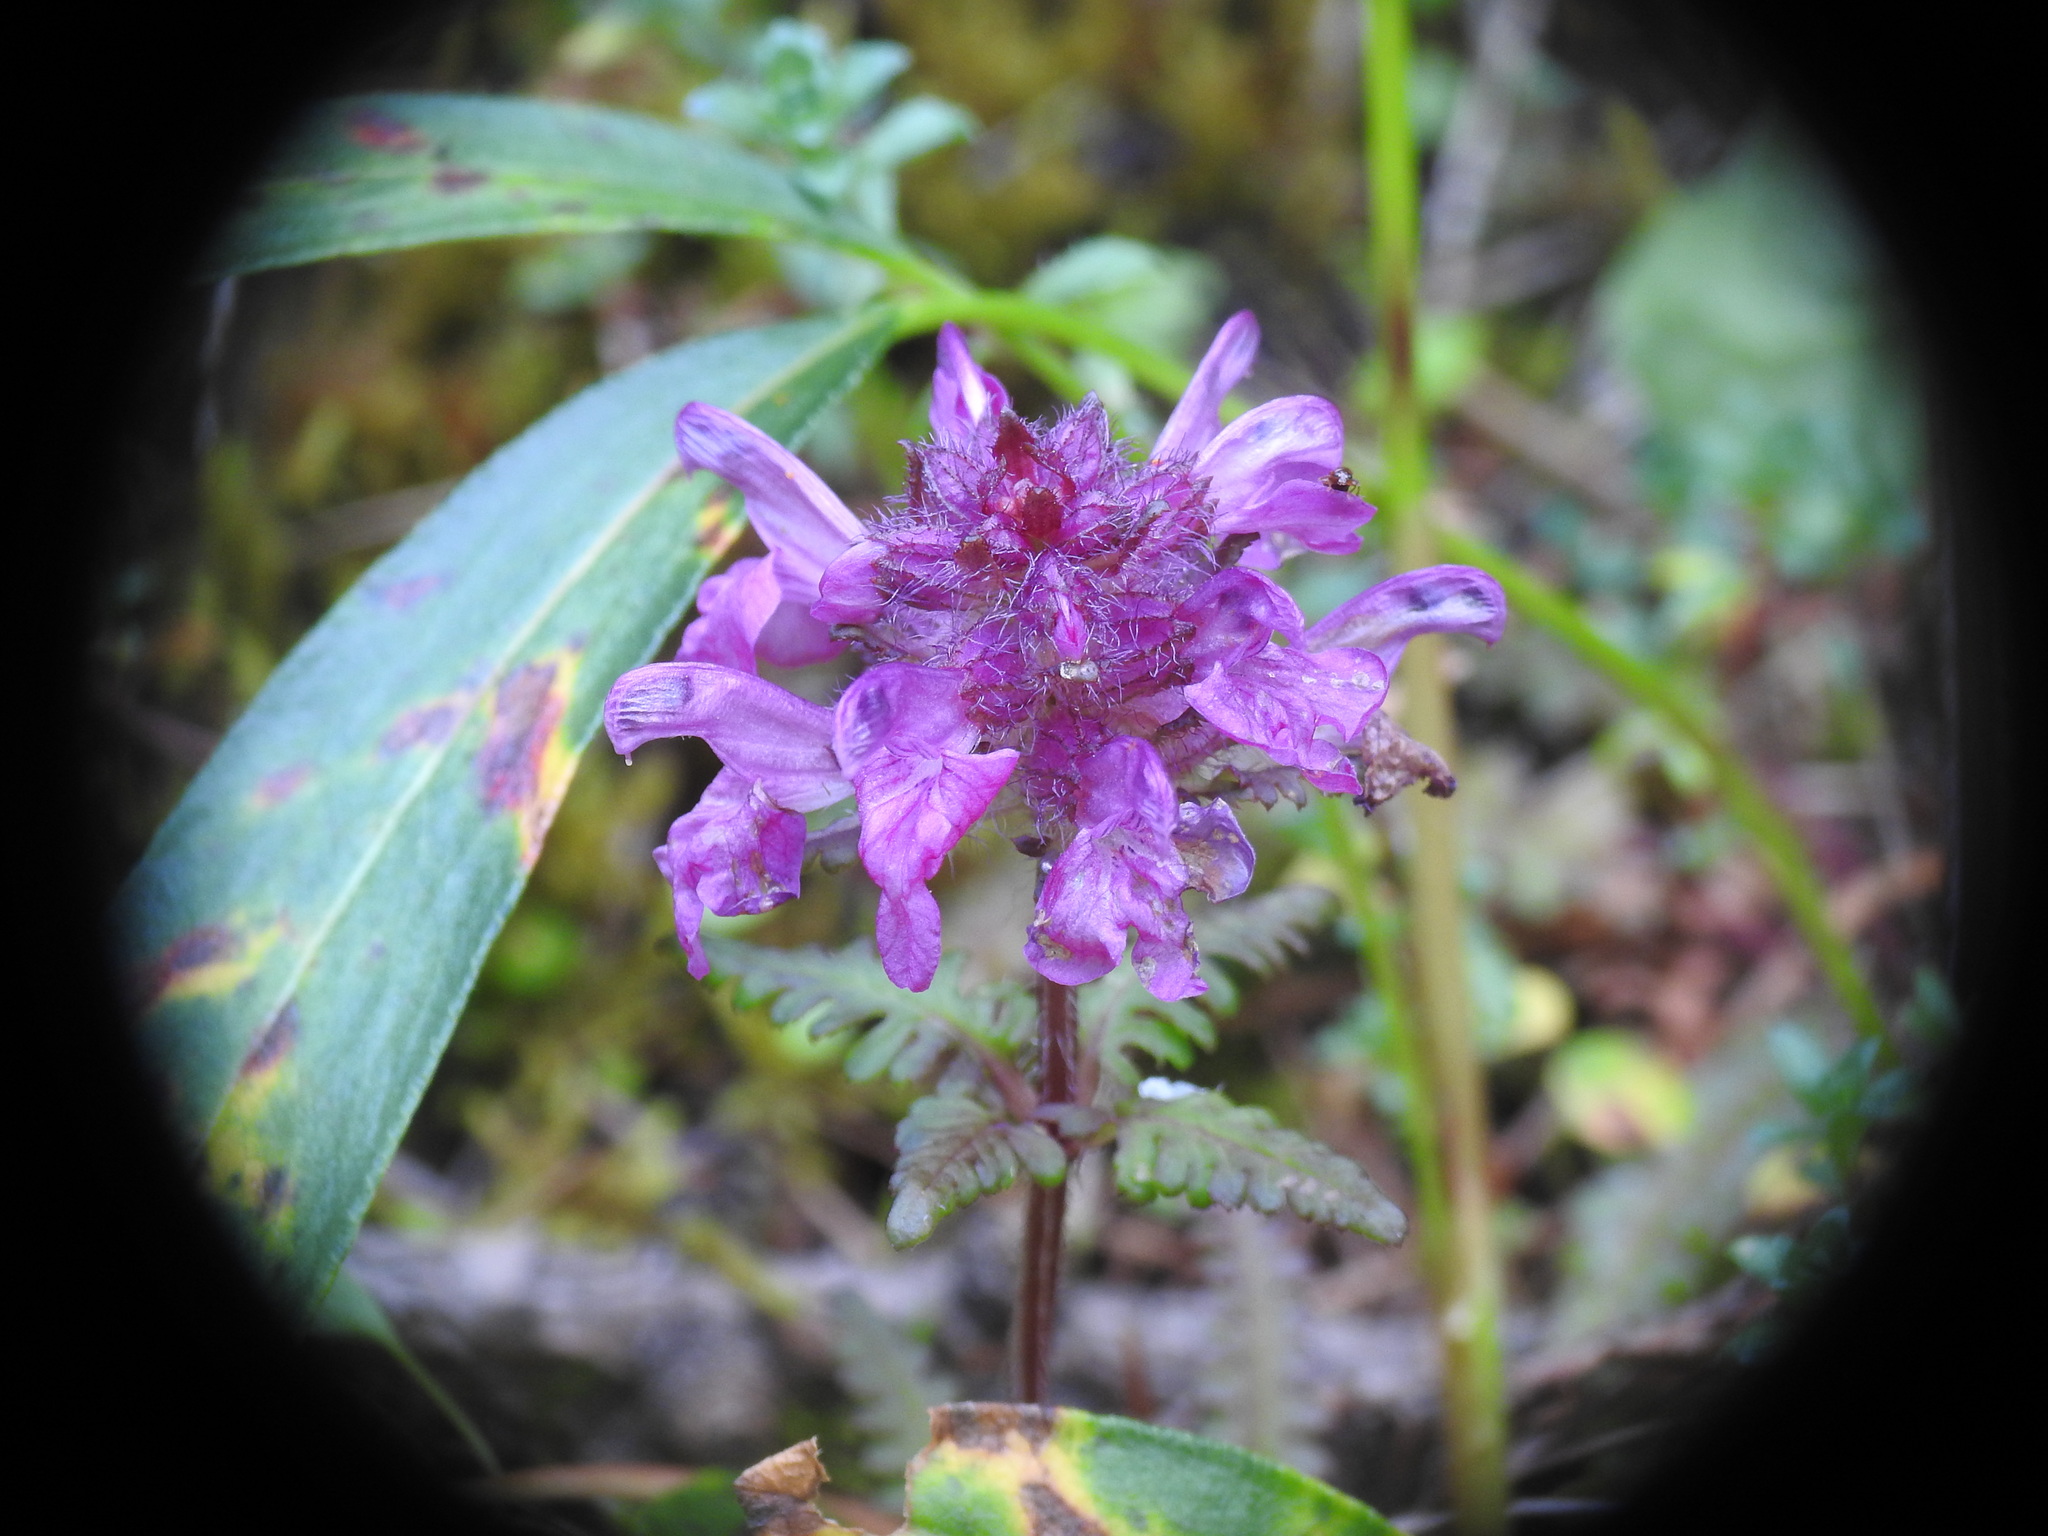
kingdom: Plantae
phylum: Tracheophyta
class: Magnoliopsida
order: Lamiales
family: Orobanchaceae
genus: Pedicularis
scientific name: Pedicularis verticillata
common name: Whorled lousewort
